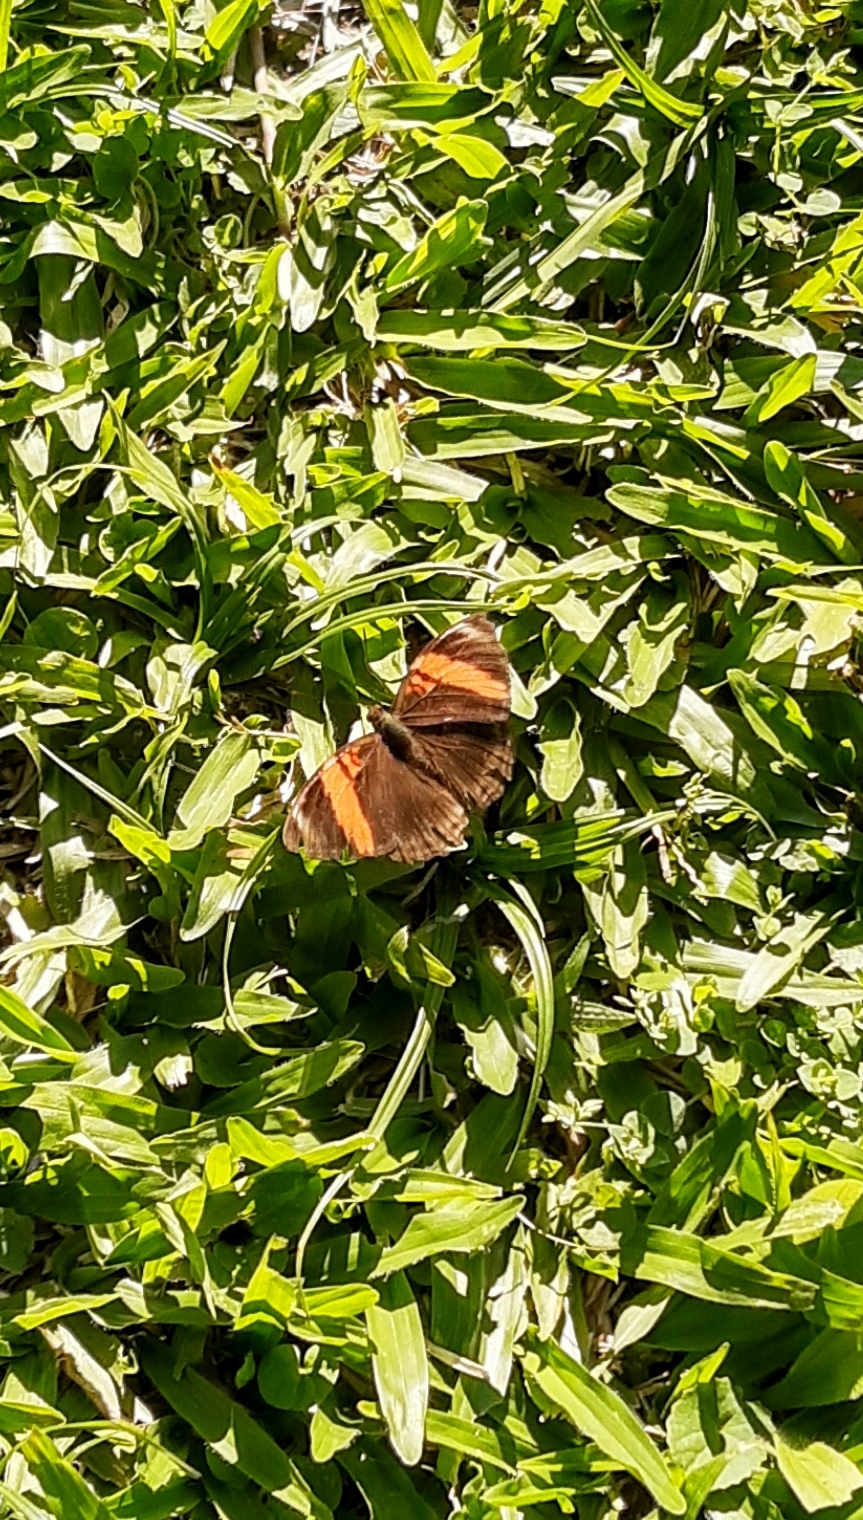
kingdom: Animalia
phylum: Arthropoda
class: Insecta
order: Lepidoptera
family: Nymphalidae
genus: Limenitis
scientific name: Limenitis isis
